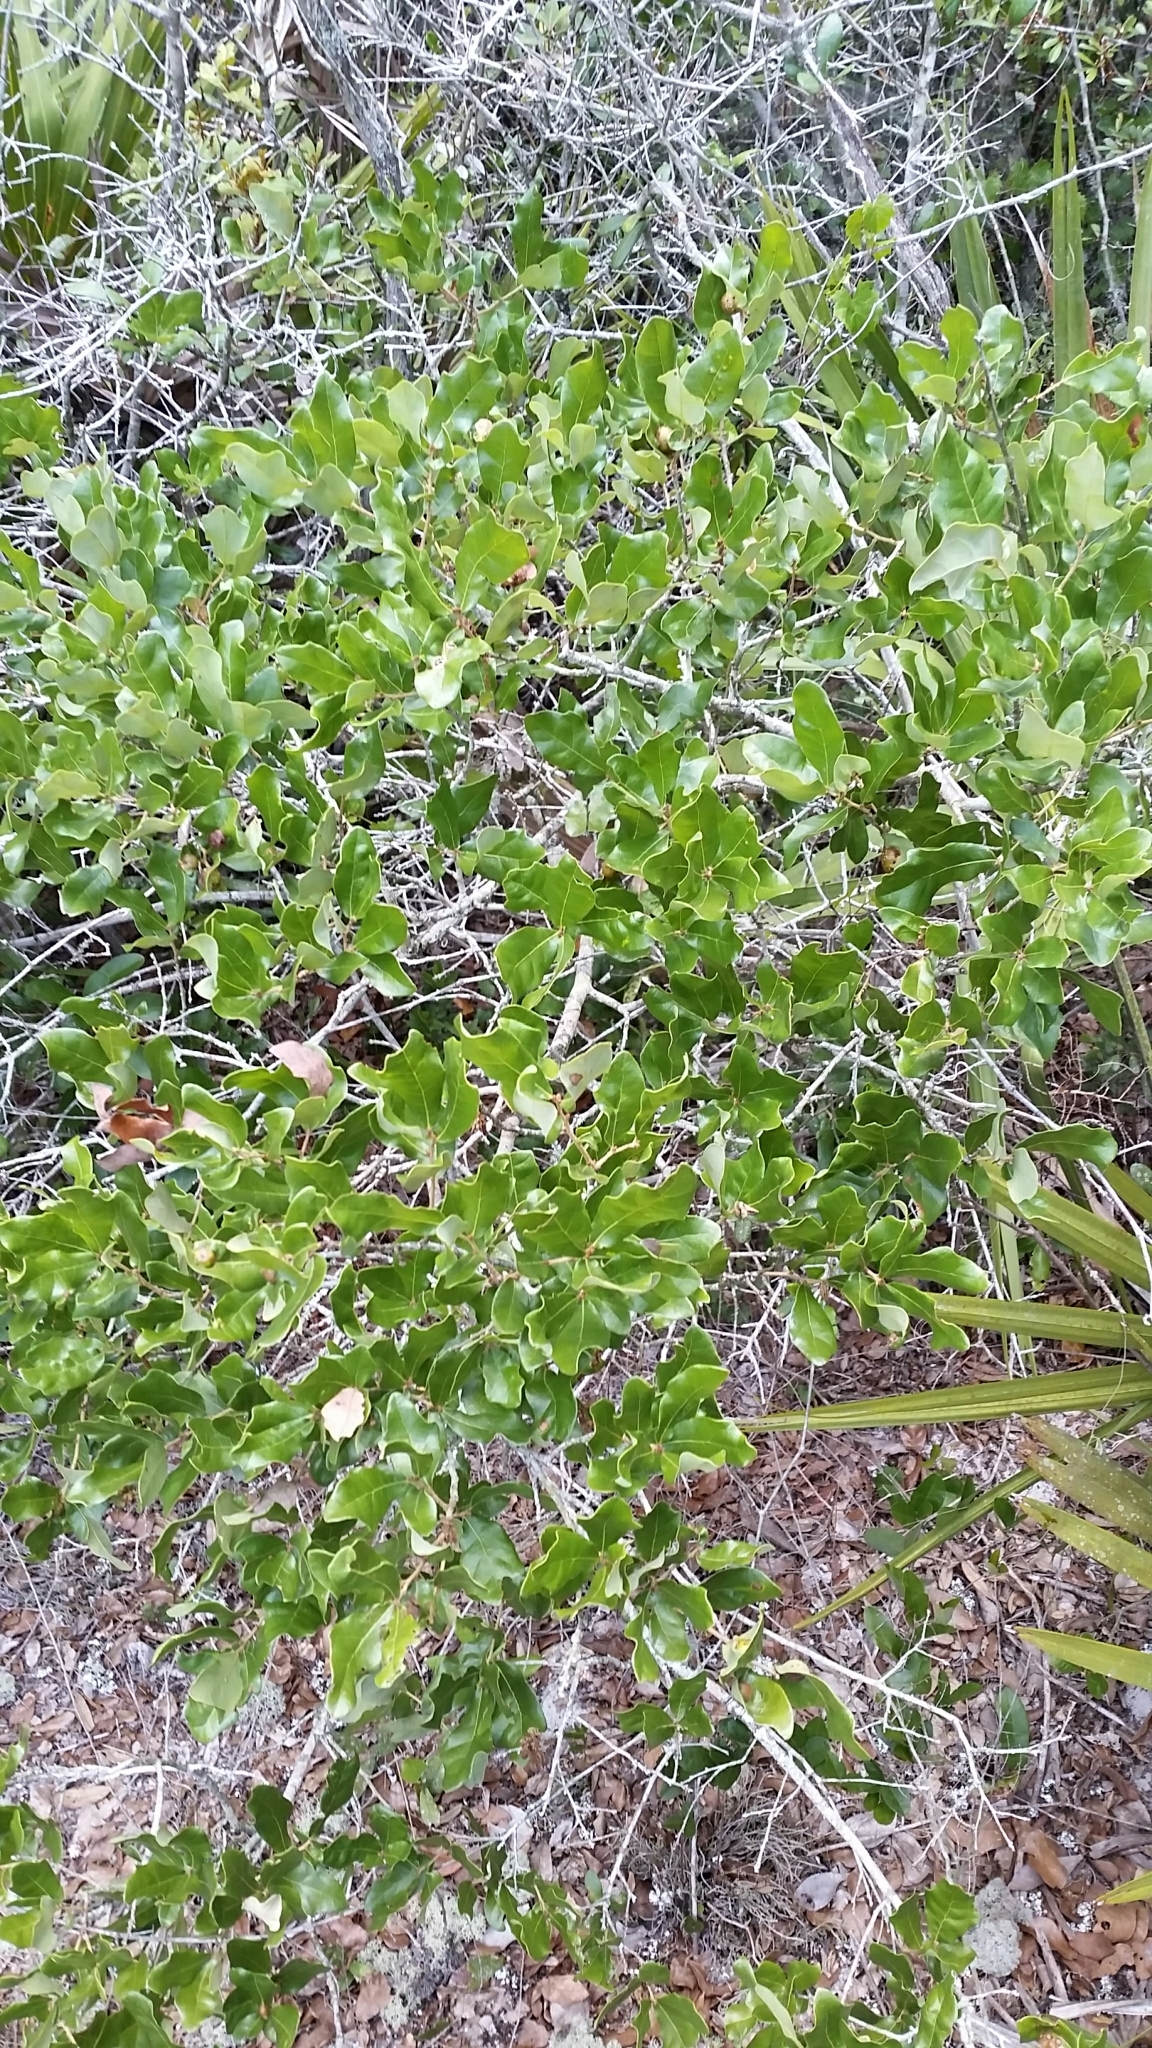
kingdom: Plantae
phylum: Tracheophyta
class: Magnoliopsida
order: Fagales
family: Fagaceae
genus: Quercus
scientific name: Quercus chapmanii
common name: Chapman oak
